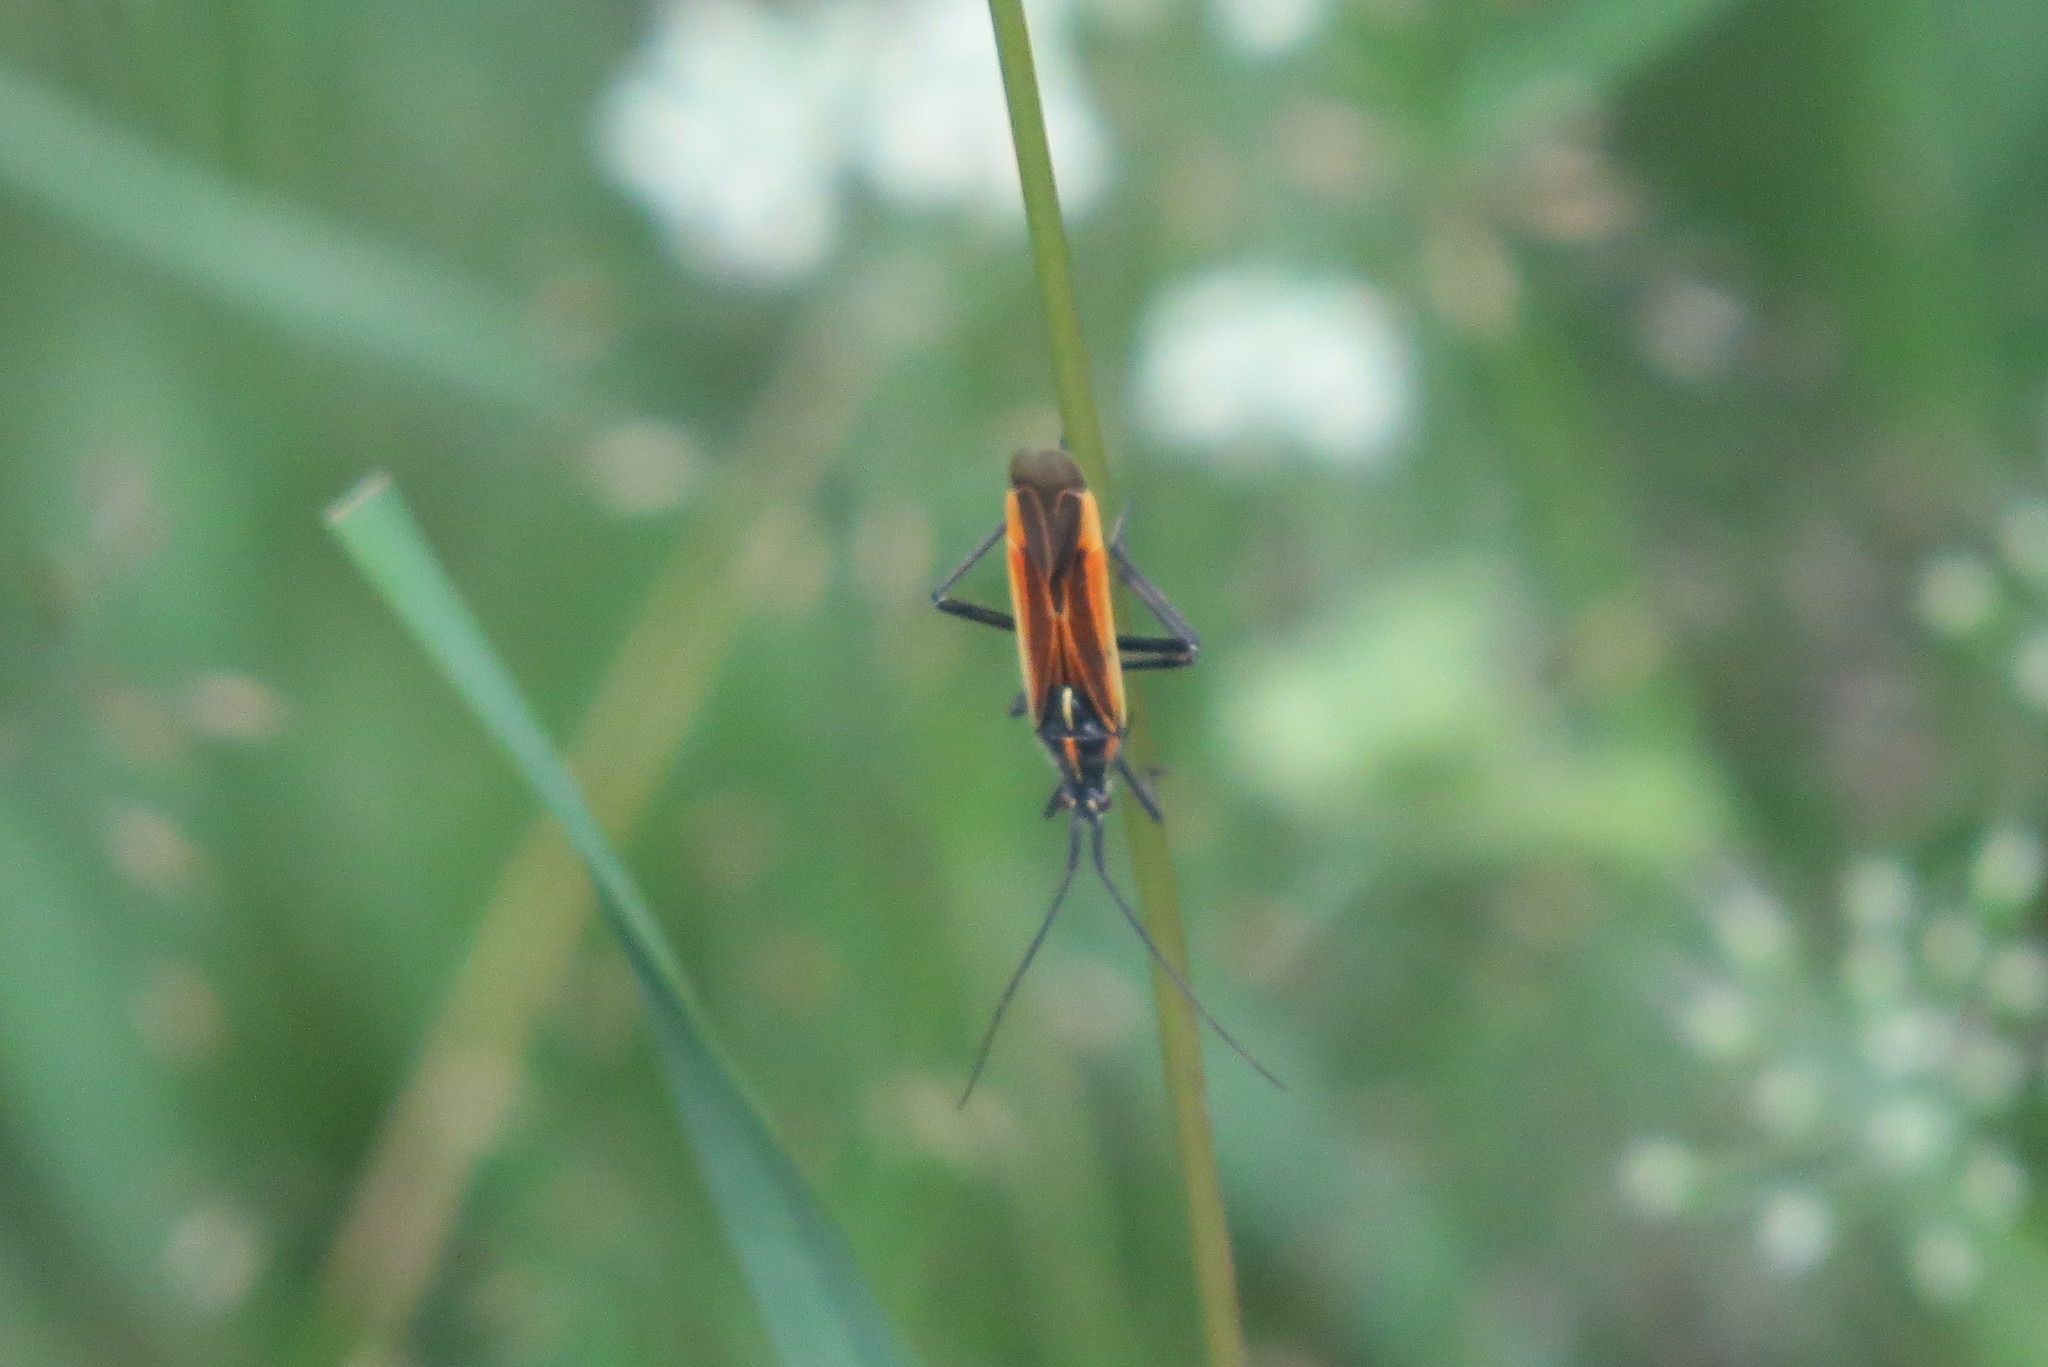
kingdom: Animalia
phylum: Arthropoda
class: Insecta
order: Hemiptera
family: Miridae
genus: Leptopterna
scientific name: Leptopterna dolabrata
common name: Meadow plant bug
